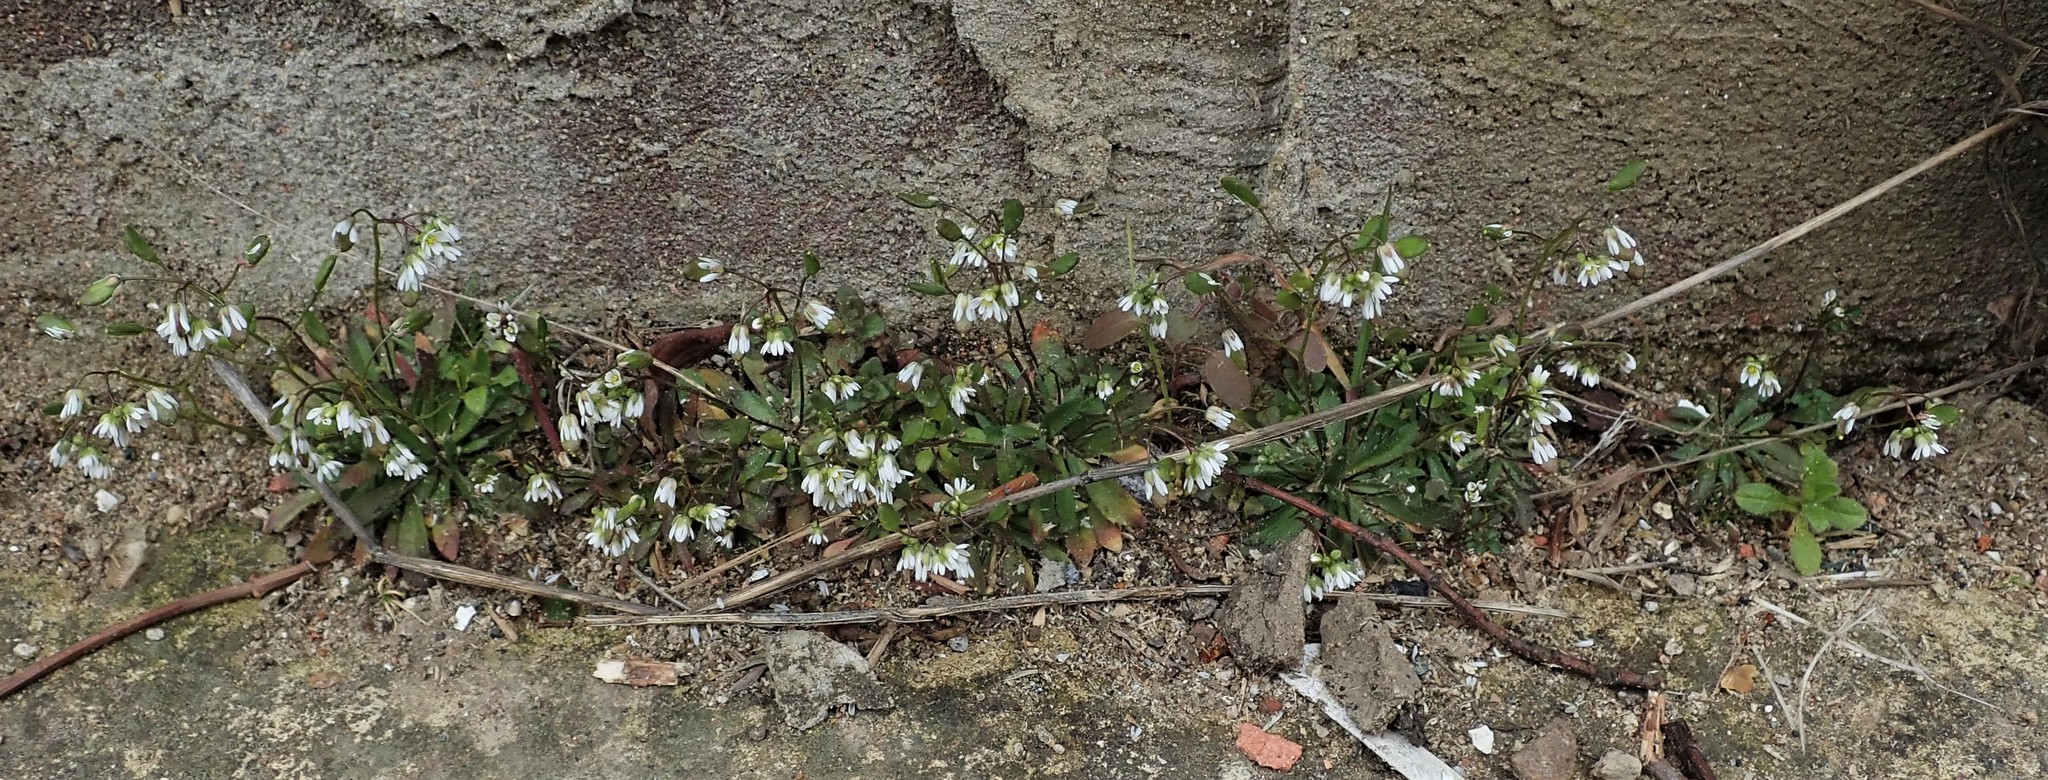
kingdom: Plantae
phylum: Tracheophyta
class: Magnoliopsida
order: Brassicales
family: Brassicaceae
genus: Draba
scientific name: Draba verna
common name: Spring draba
